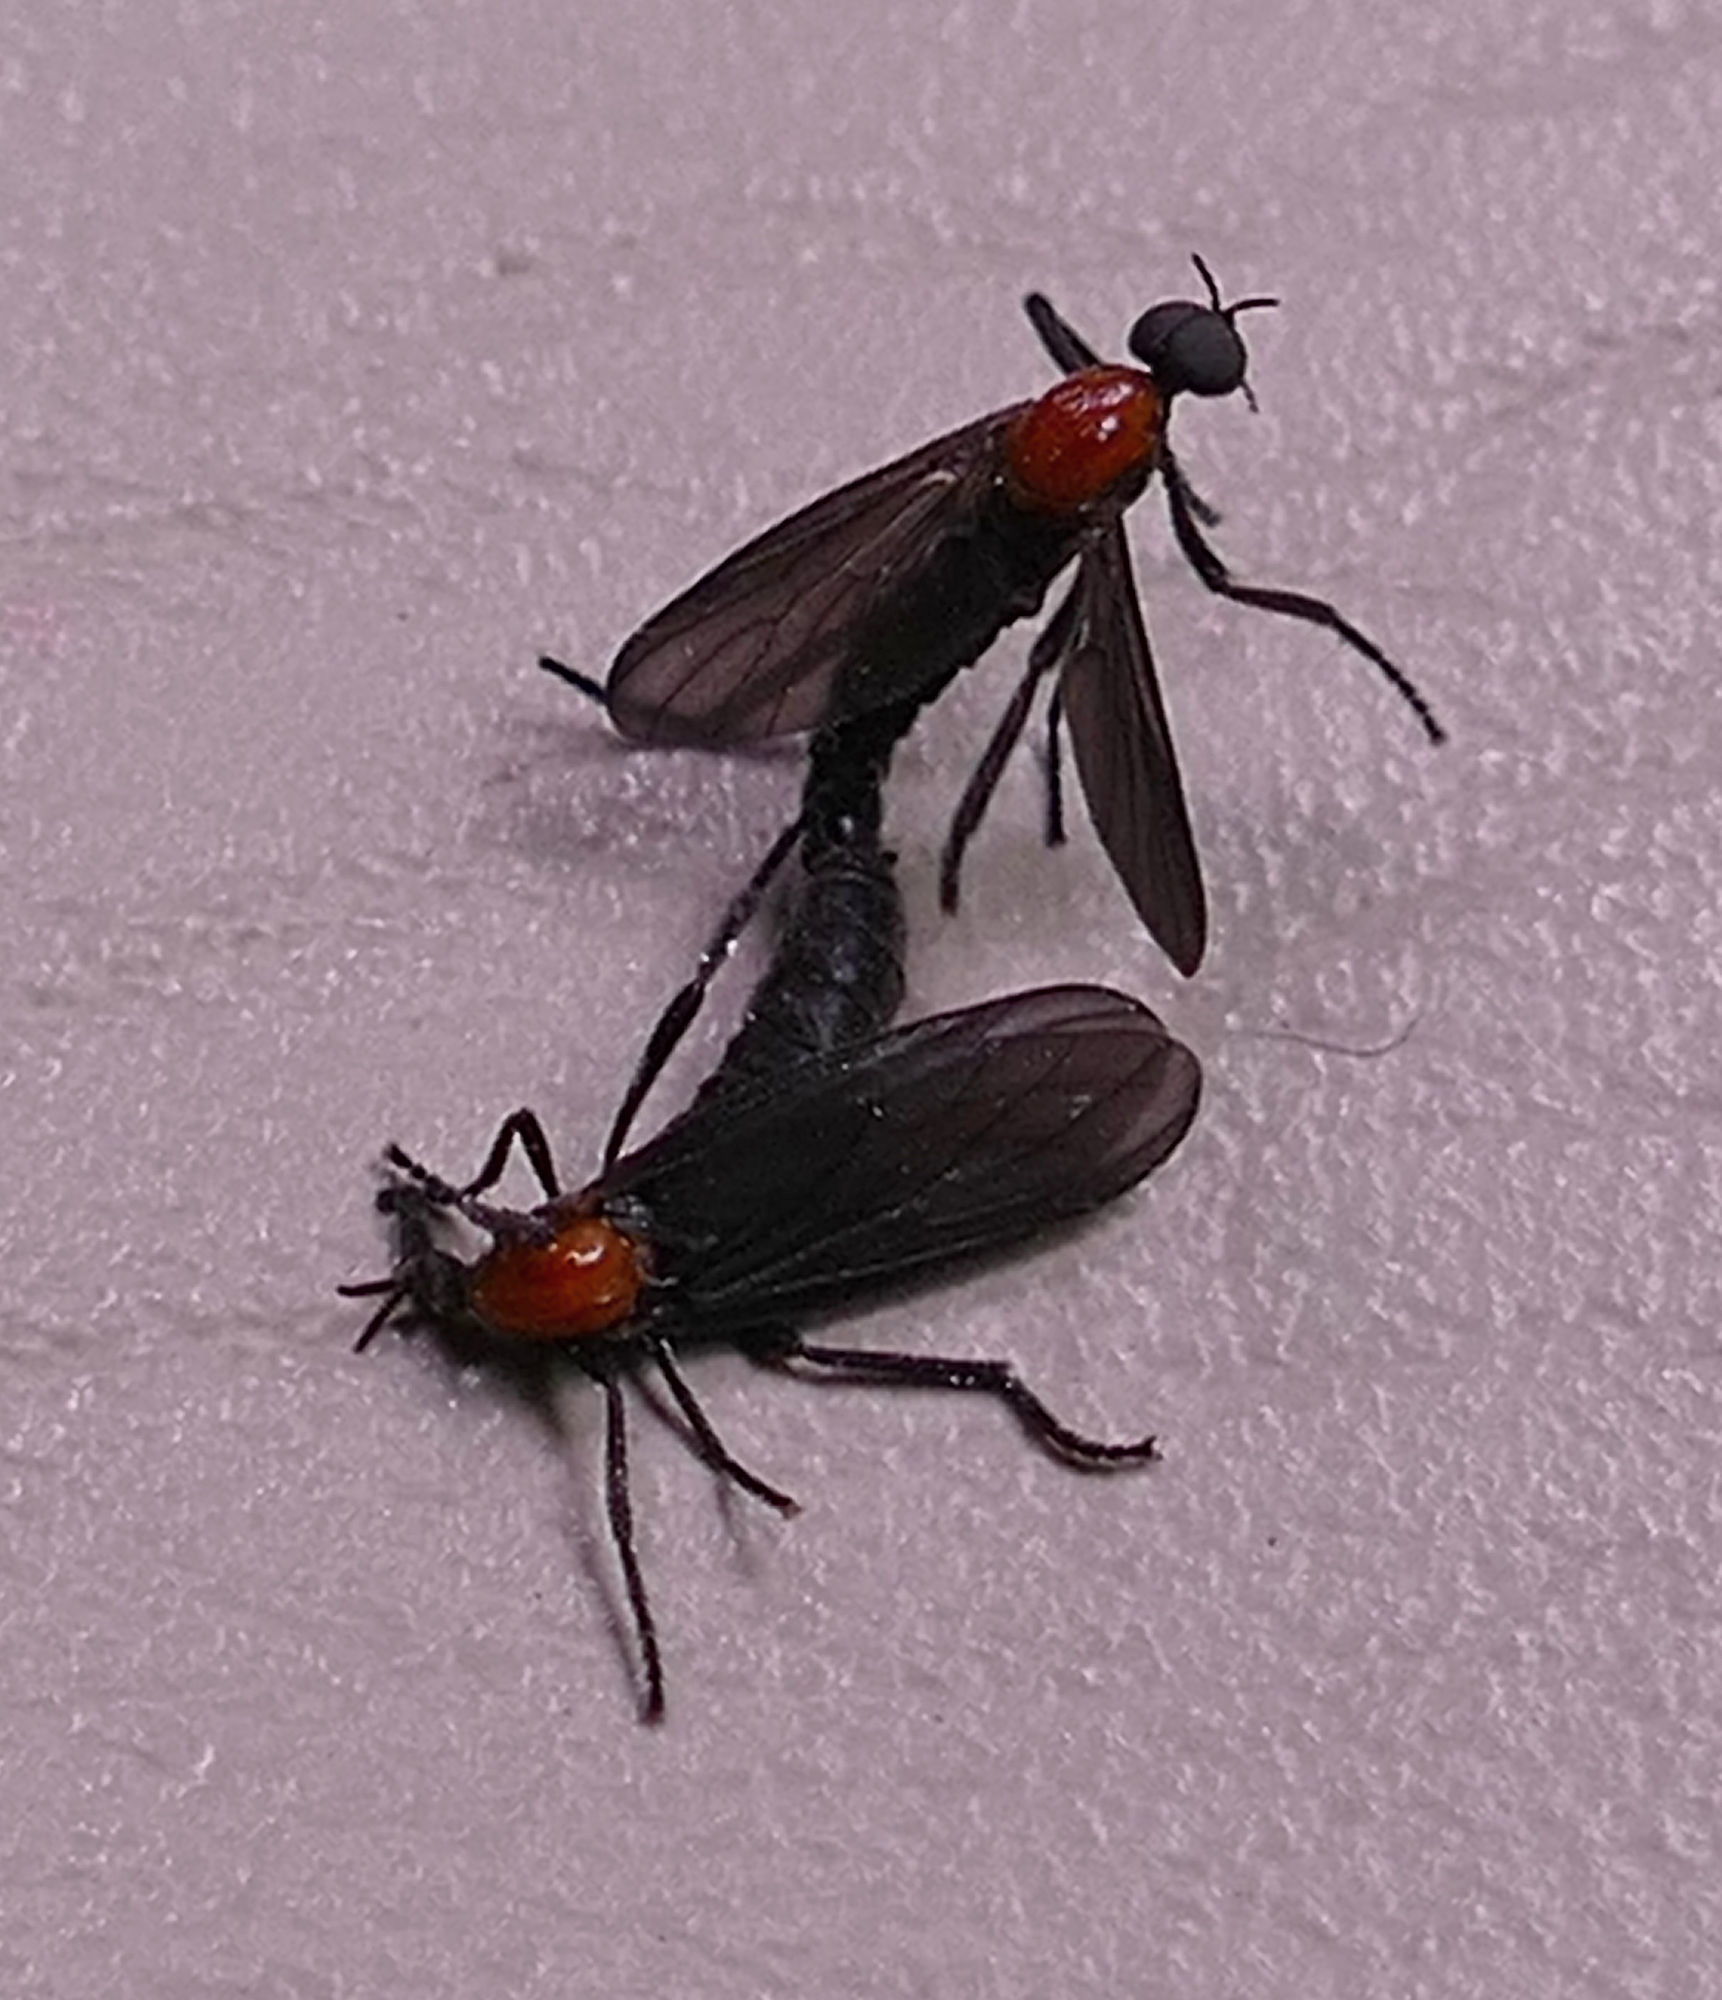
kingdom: Animalia
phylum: Arthropoda
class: Insecta
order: Diptera
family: Bibionidae
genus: Plecia
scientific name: Plecia nearctica
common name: March fly
